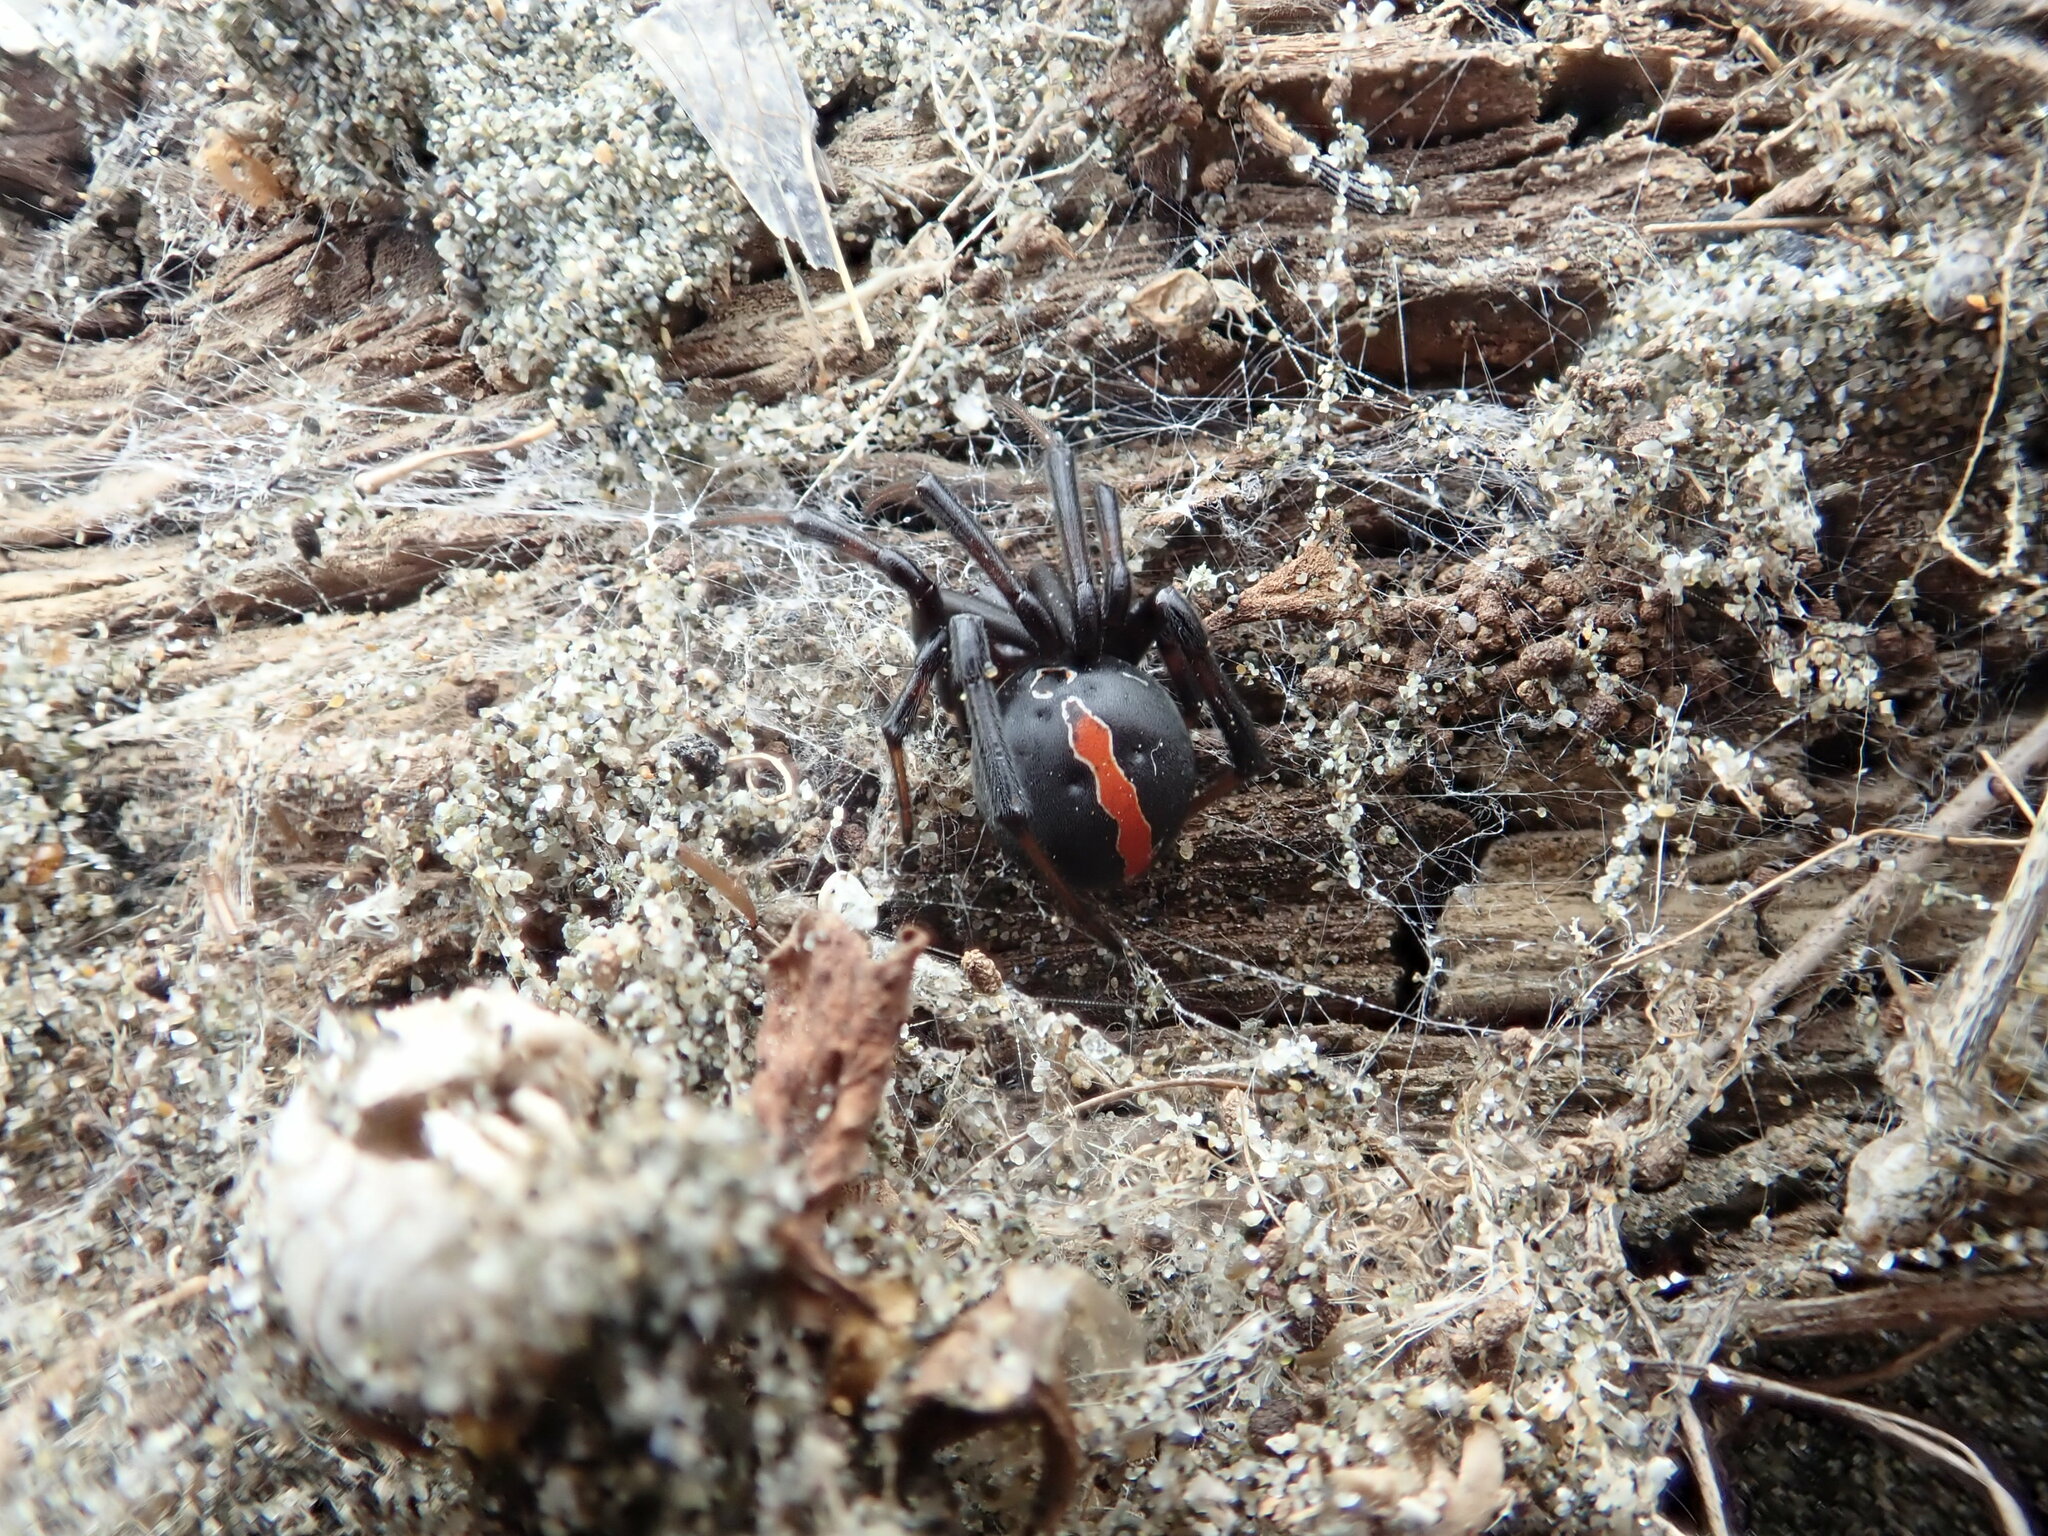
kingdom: Animalia
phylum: Arthropoda
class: Arachnida
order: Araneae
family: Theridiidae
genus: Latrodectus
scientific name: Latrodectus katipo
